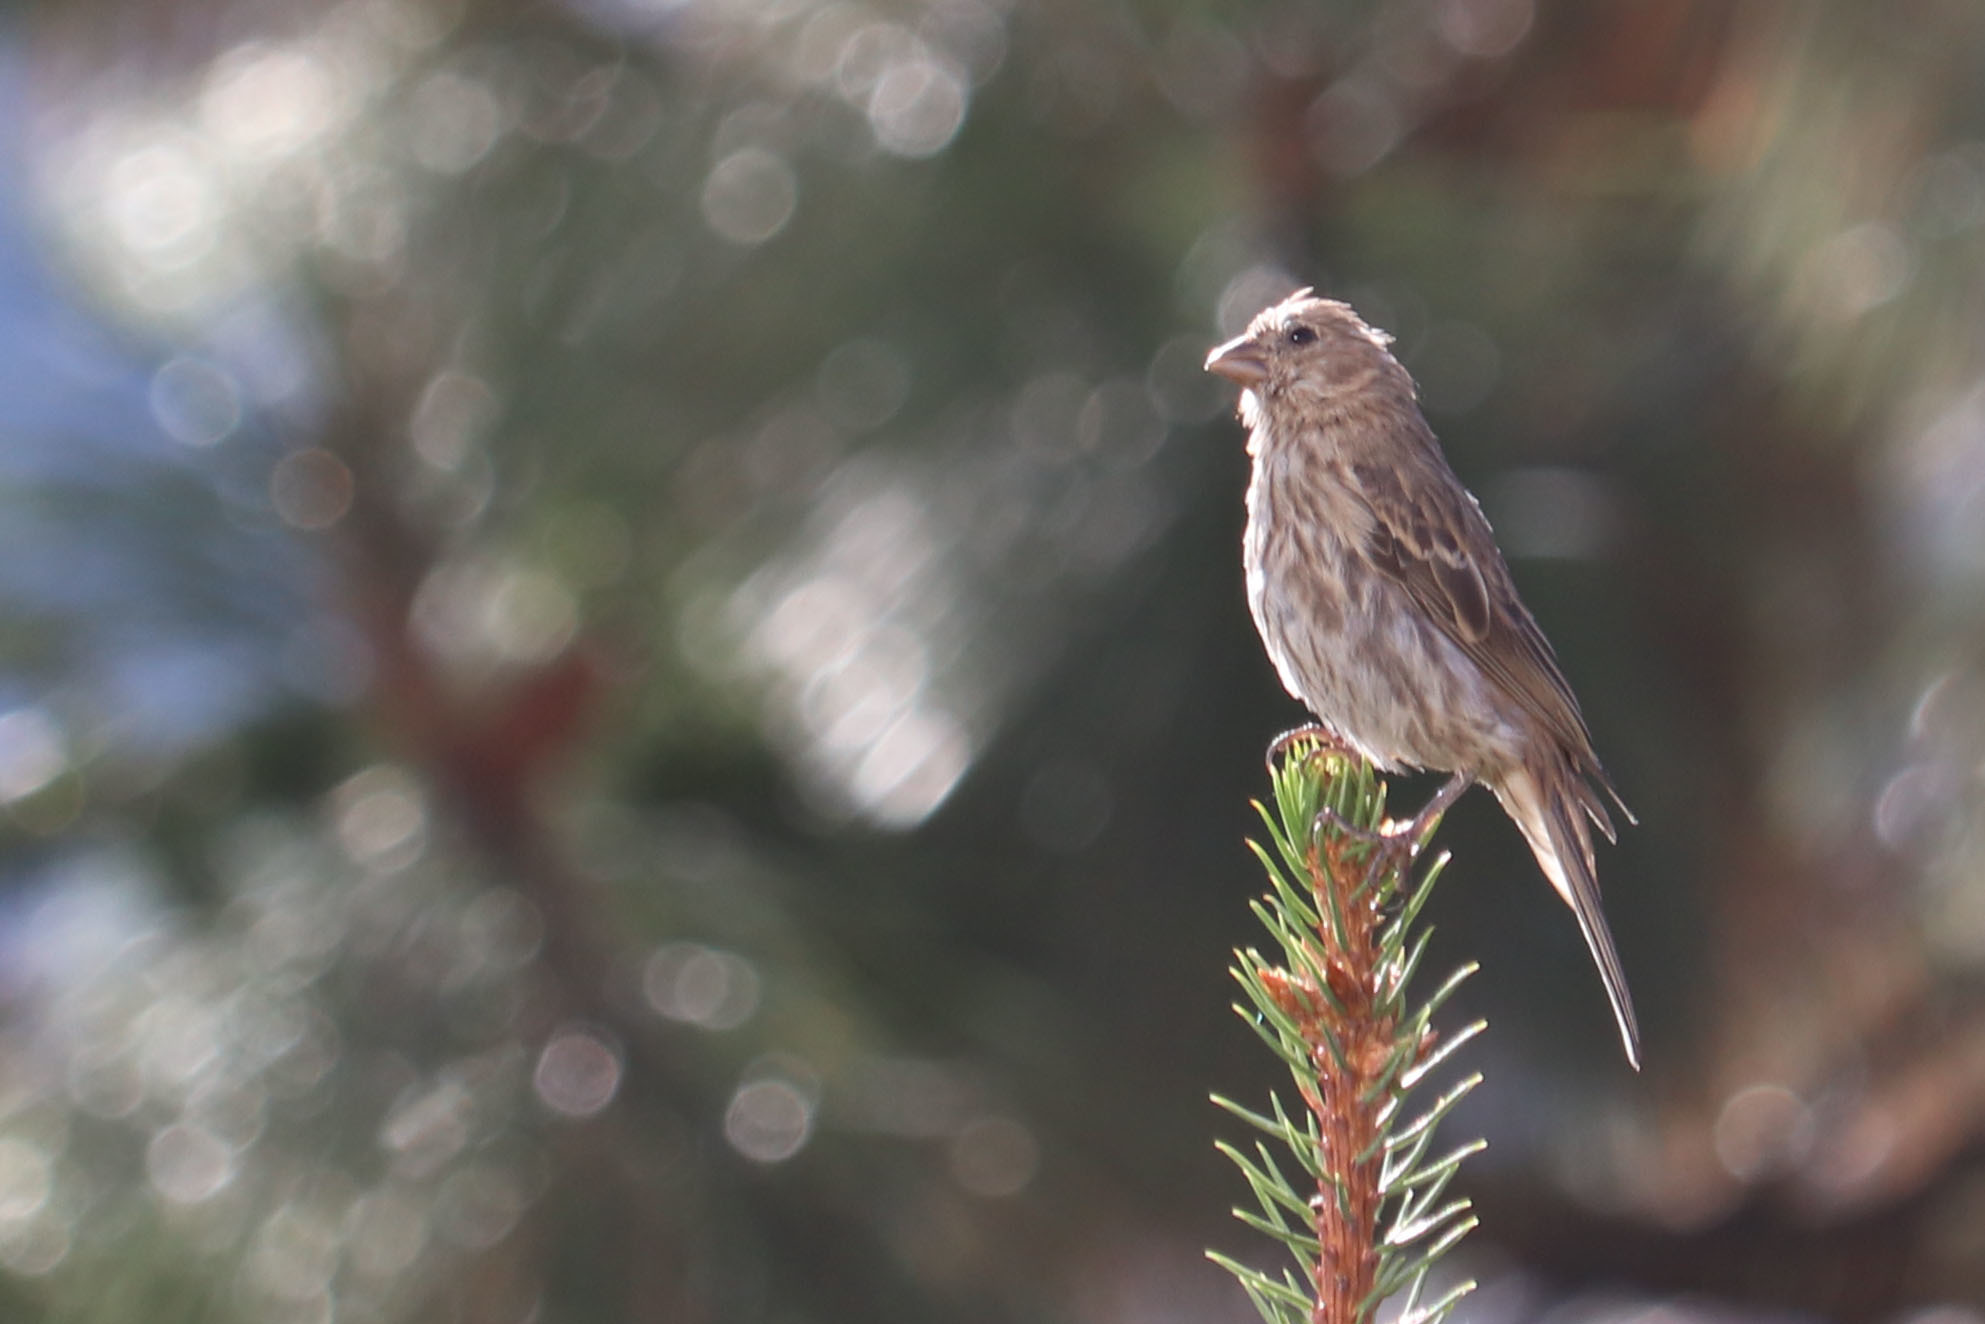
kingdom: Animalia
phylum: Chordata
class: Aves
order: Passeriformes
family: Fringillidae
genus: Haemorhous
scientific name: Haemorhous mexicanus
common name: House finch
